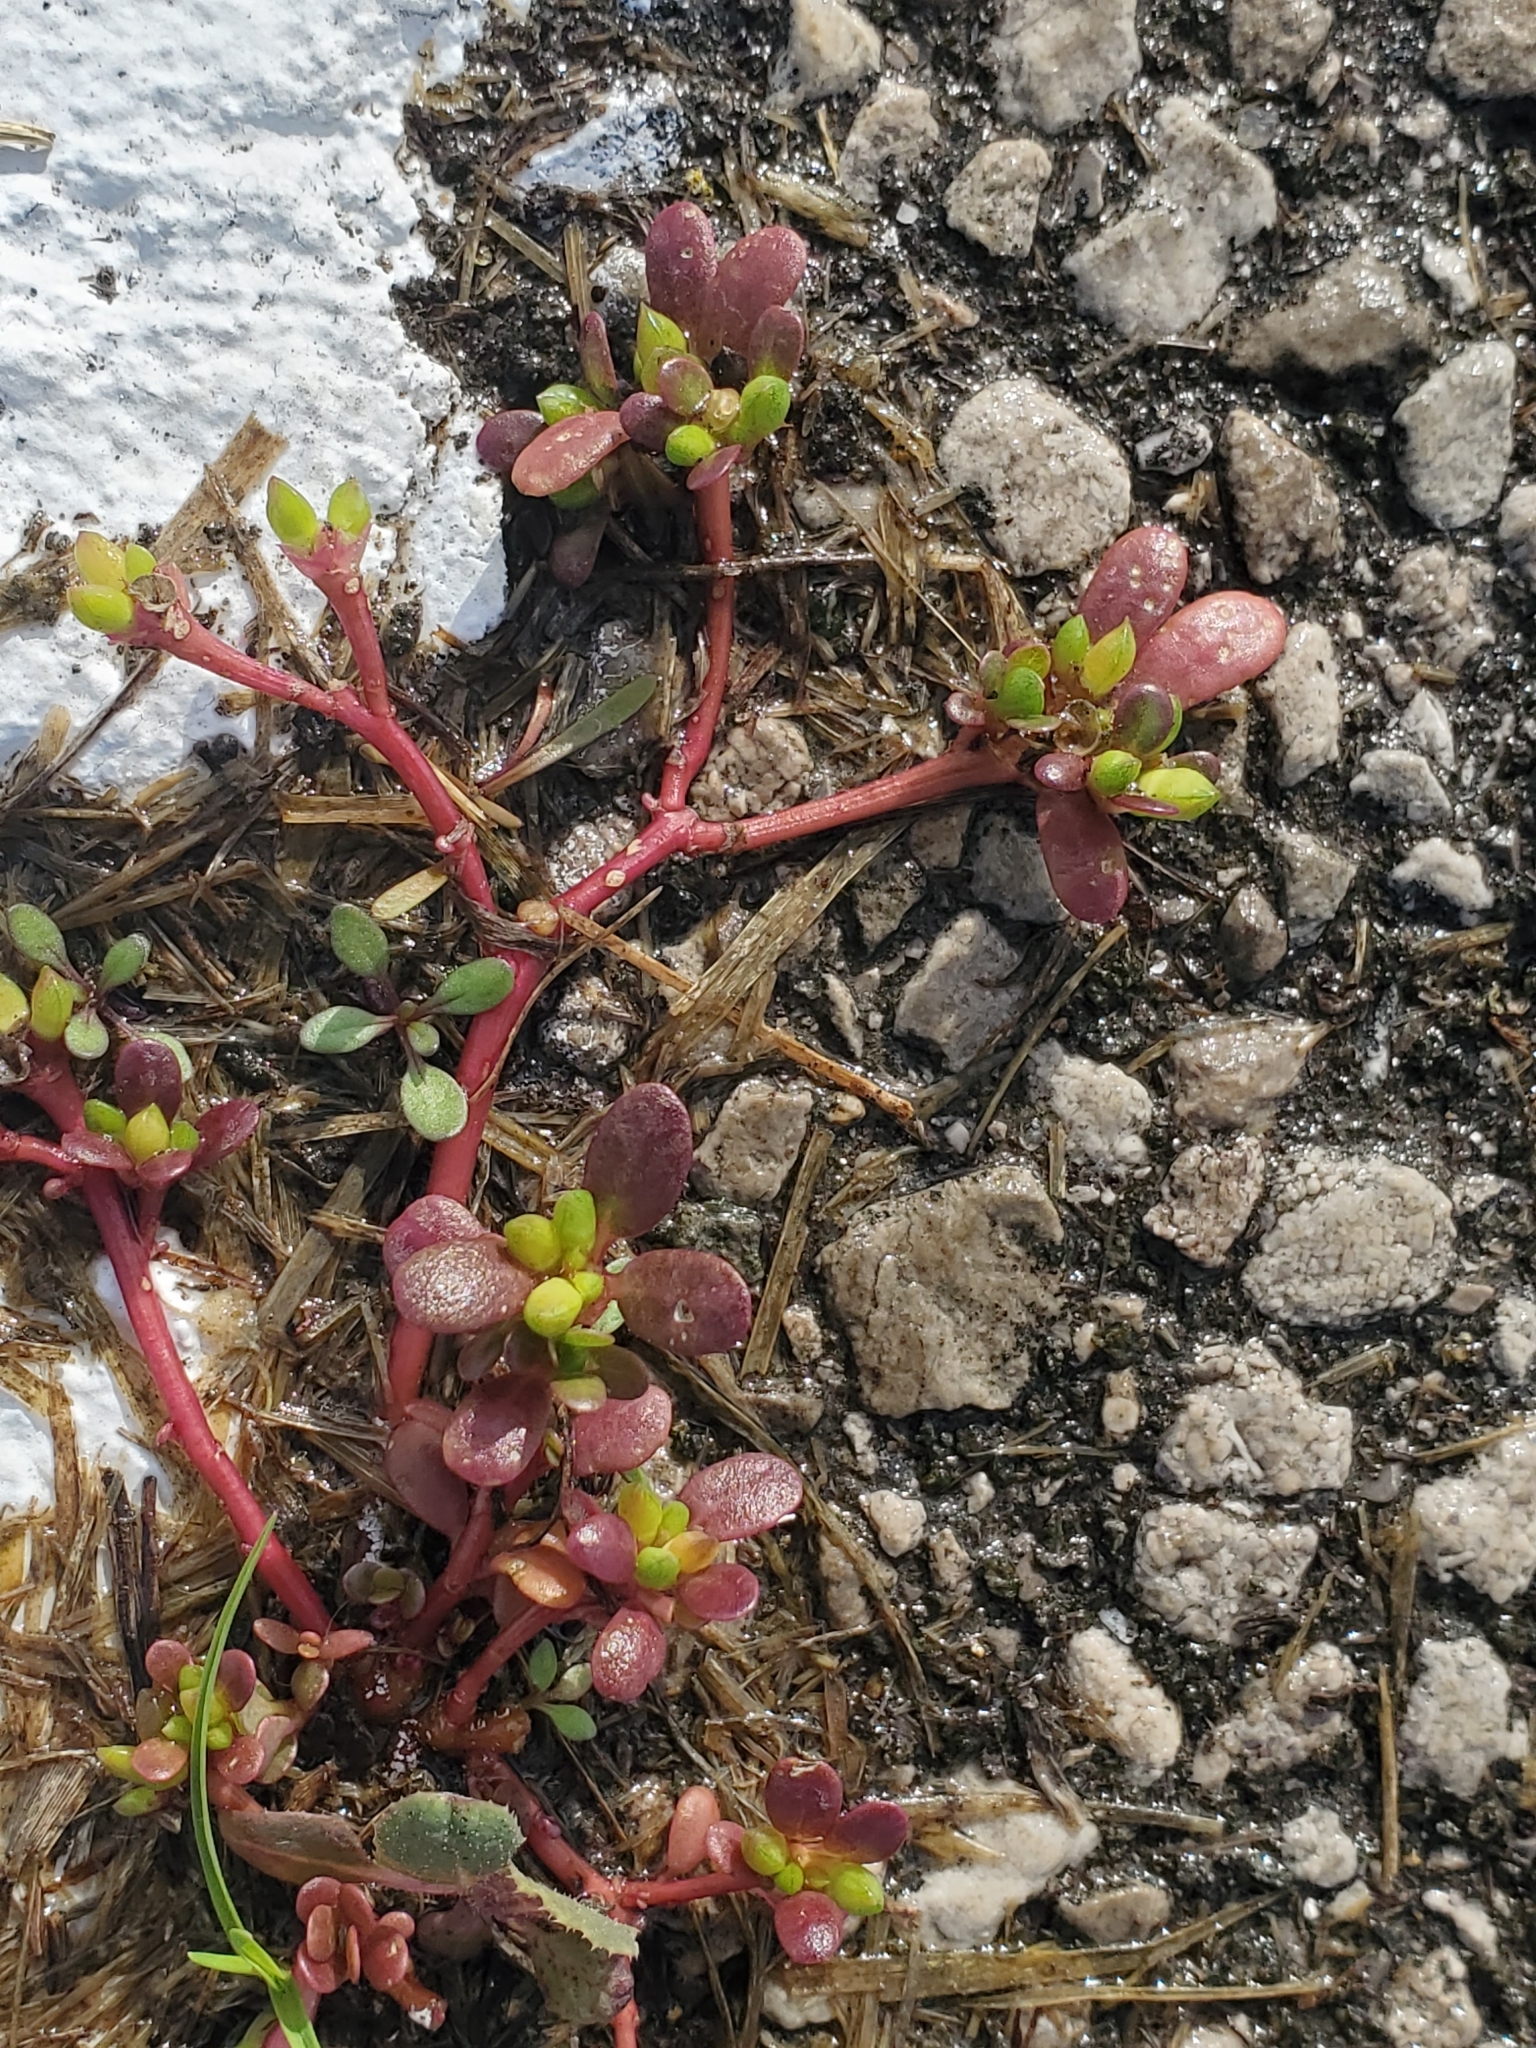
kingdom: Plantae
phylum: Tracheophyta
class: Magnoliopsida
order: Caryophyllales
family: Portulacaceae
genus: Portulaca
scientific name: Portulaca oleracea
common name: Common purslane
